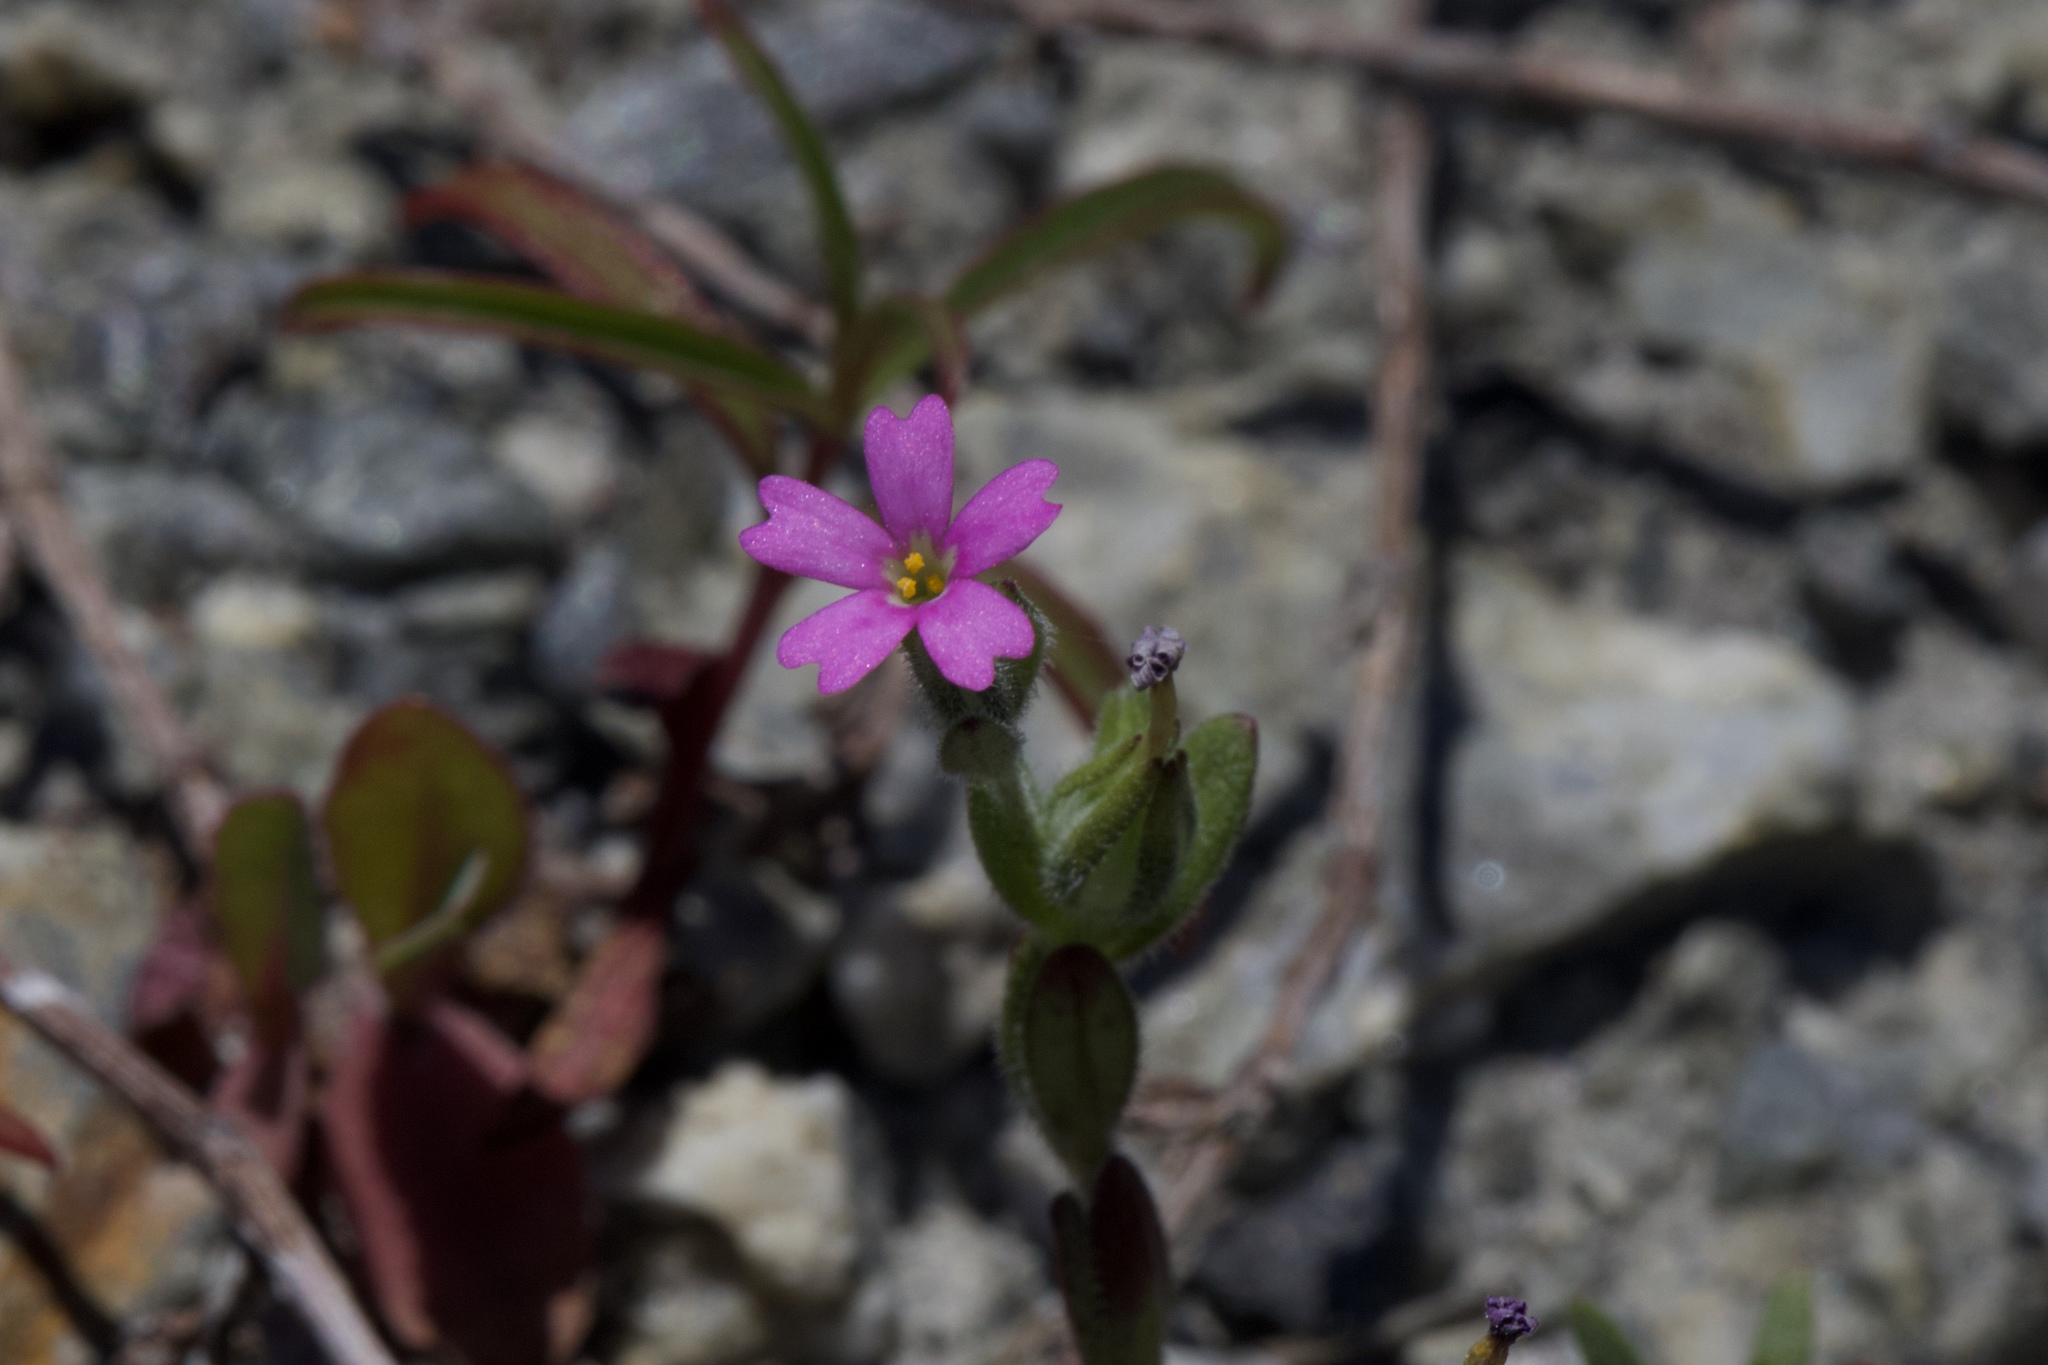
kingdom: Plantae
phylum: Tracheophyta
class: Magnoliopsida
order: Ericales
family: Polemoniaceae
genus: Phlox
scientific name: Phlox gracilis
